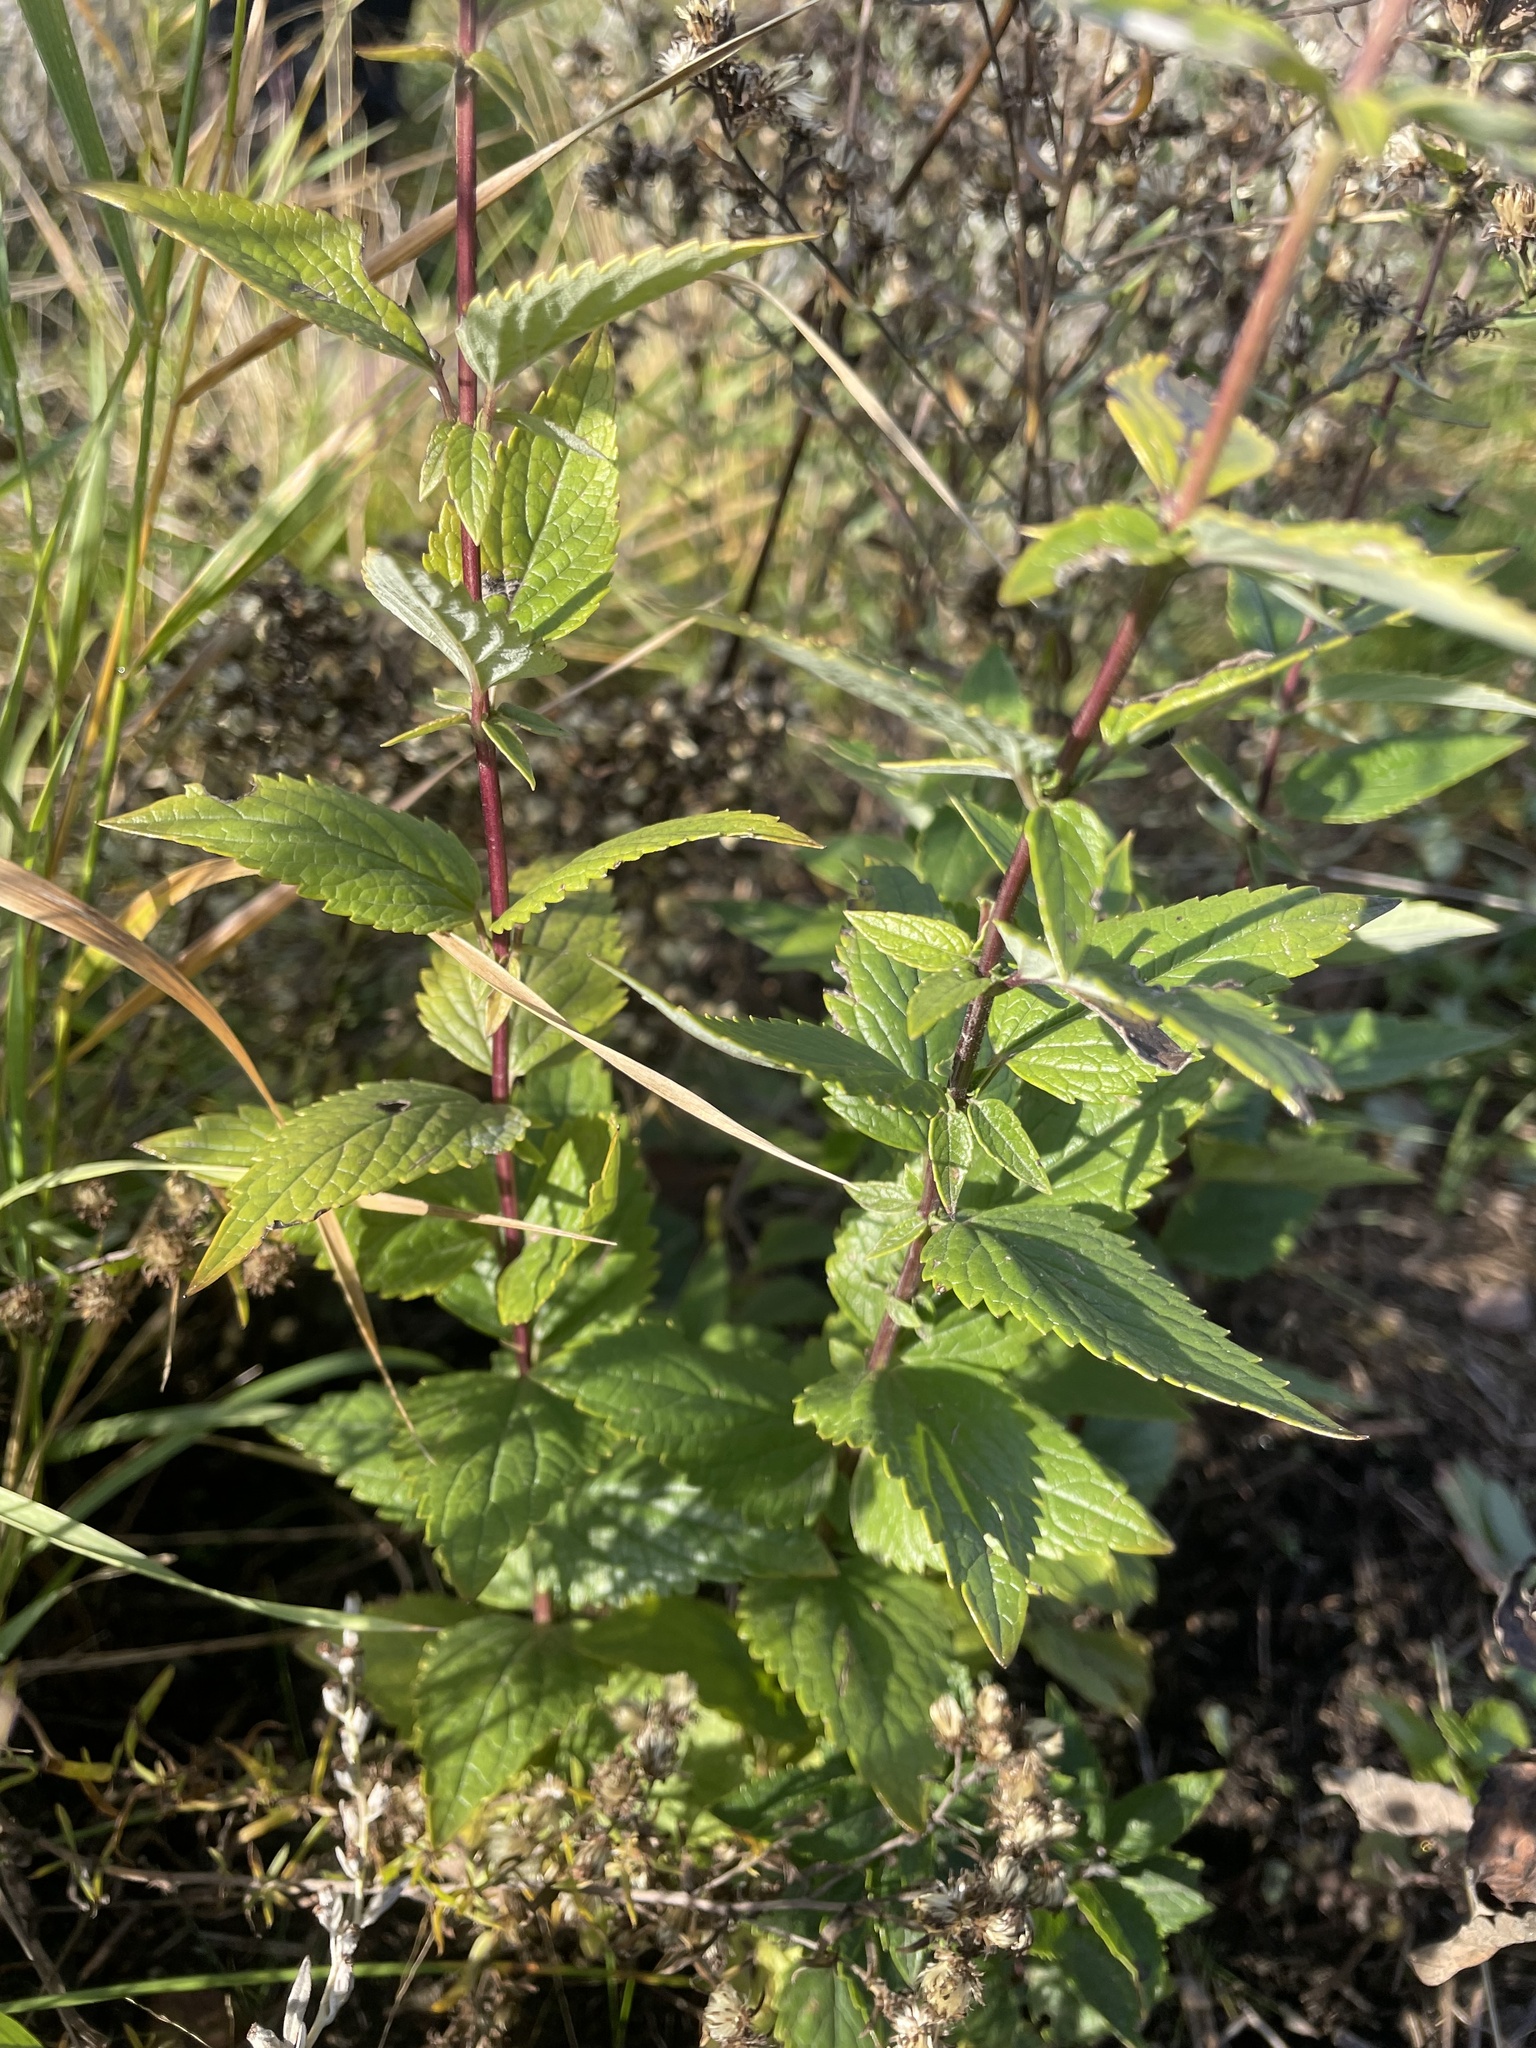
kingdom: Plantae
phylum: Tracheophyta
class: Magnoliopsida
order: Lamiales
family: Lamiaceae
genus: Agastache
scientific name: Agastache foeniculum
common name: Anise hyssop
